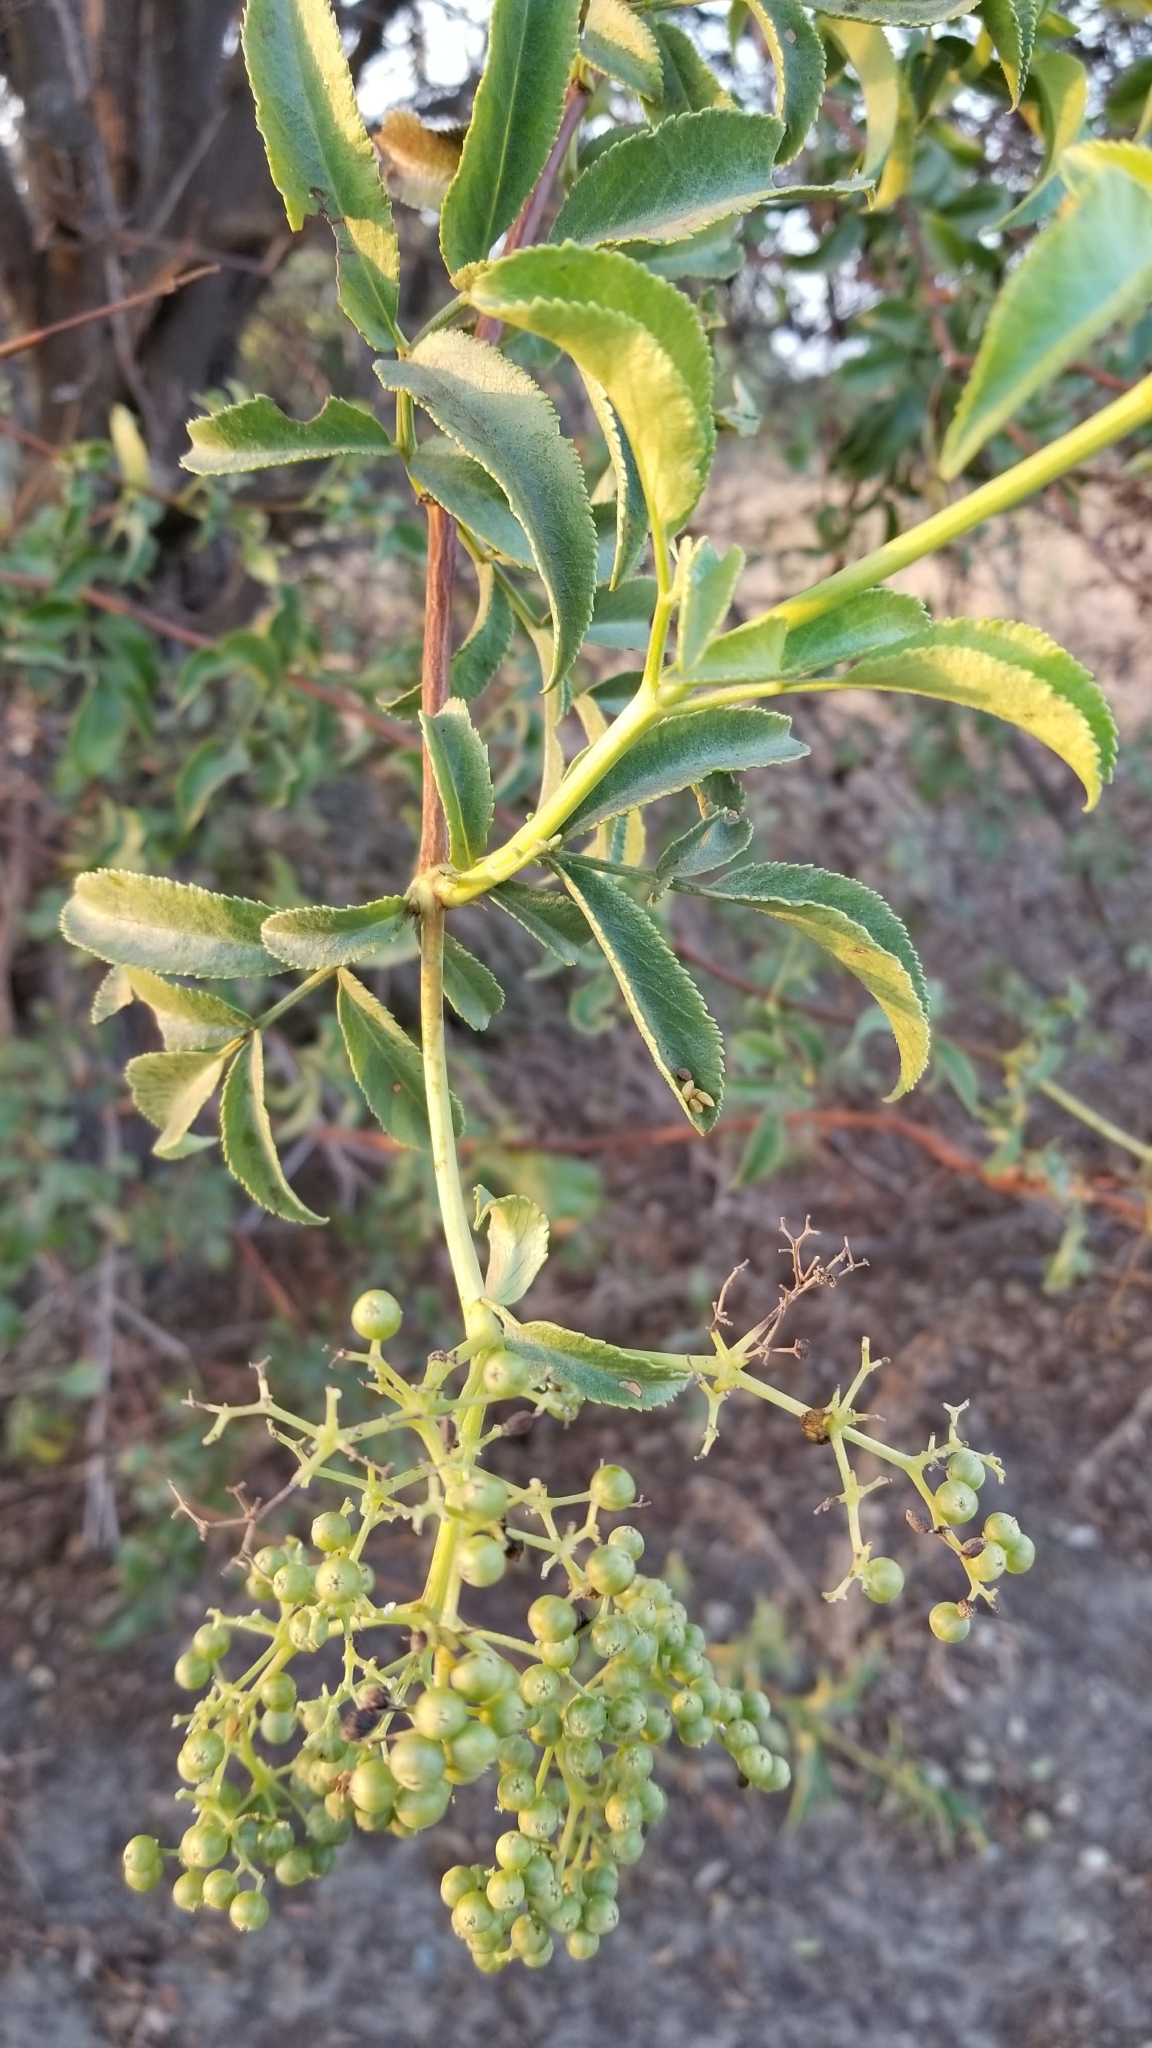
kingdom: Plantae
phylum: Tracheophyta
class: Magnoliopsida
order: Dipsacales
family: Viburnaceae
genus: Sambucus
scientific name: Sambucus cerulea
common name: Blue elder
